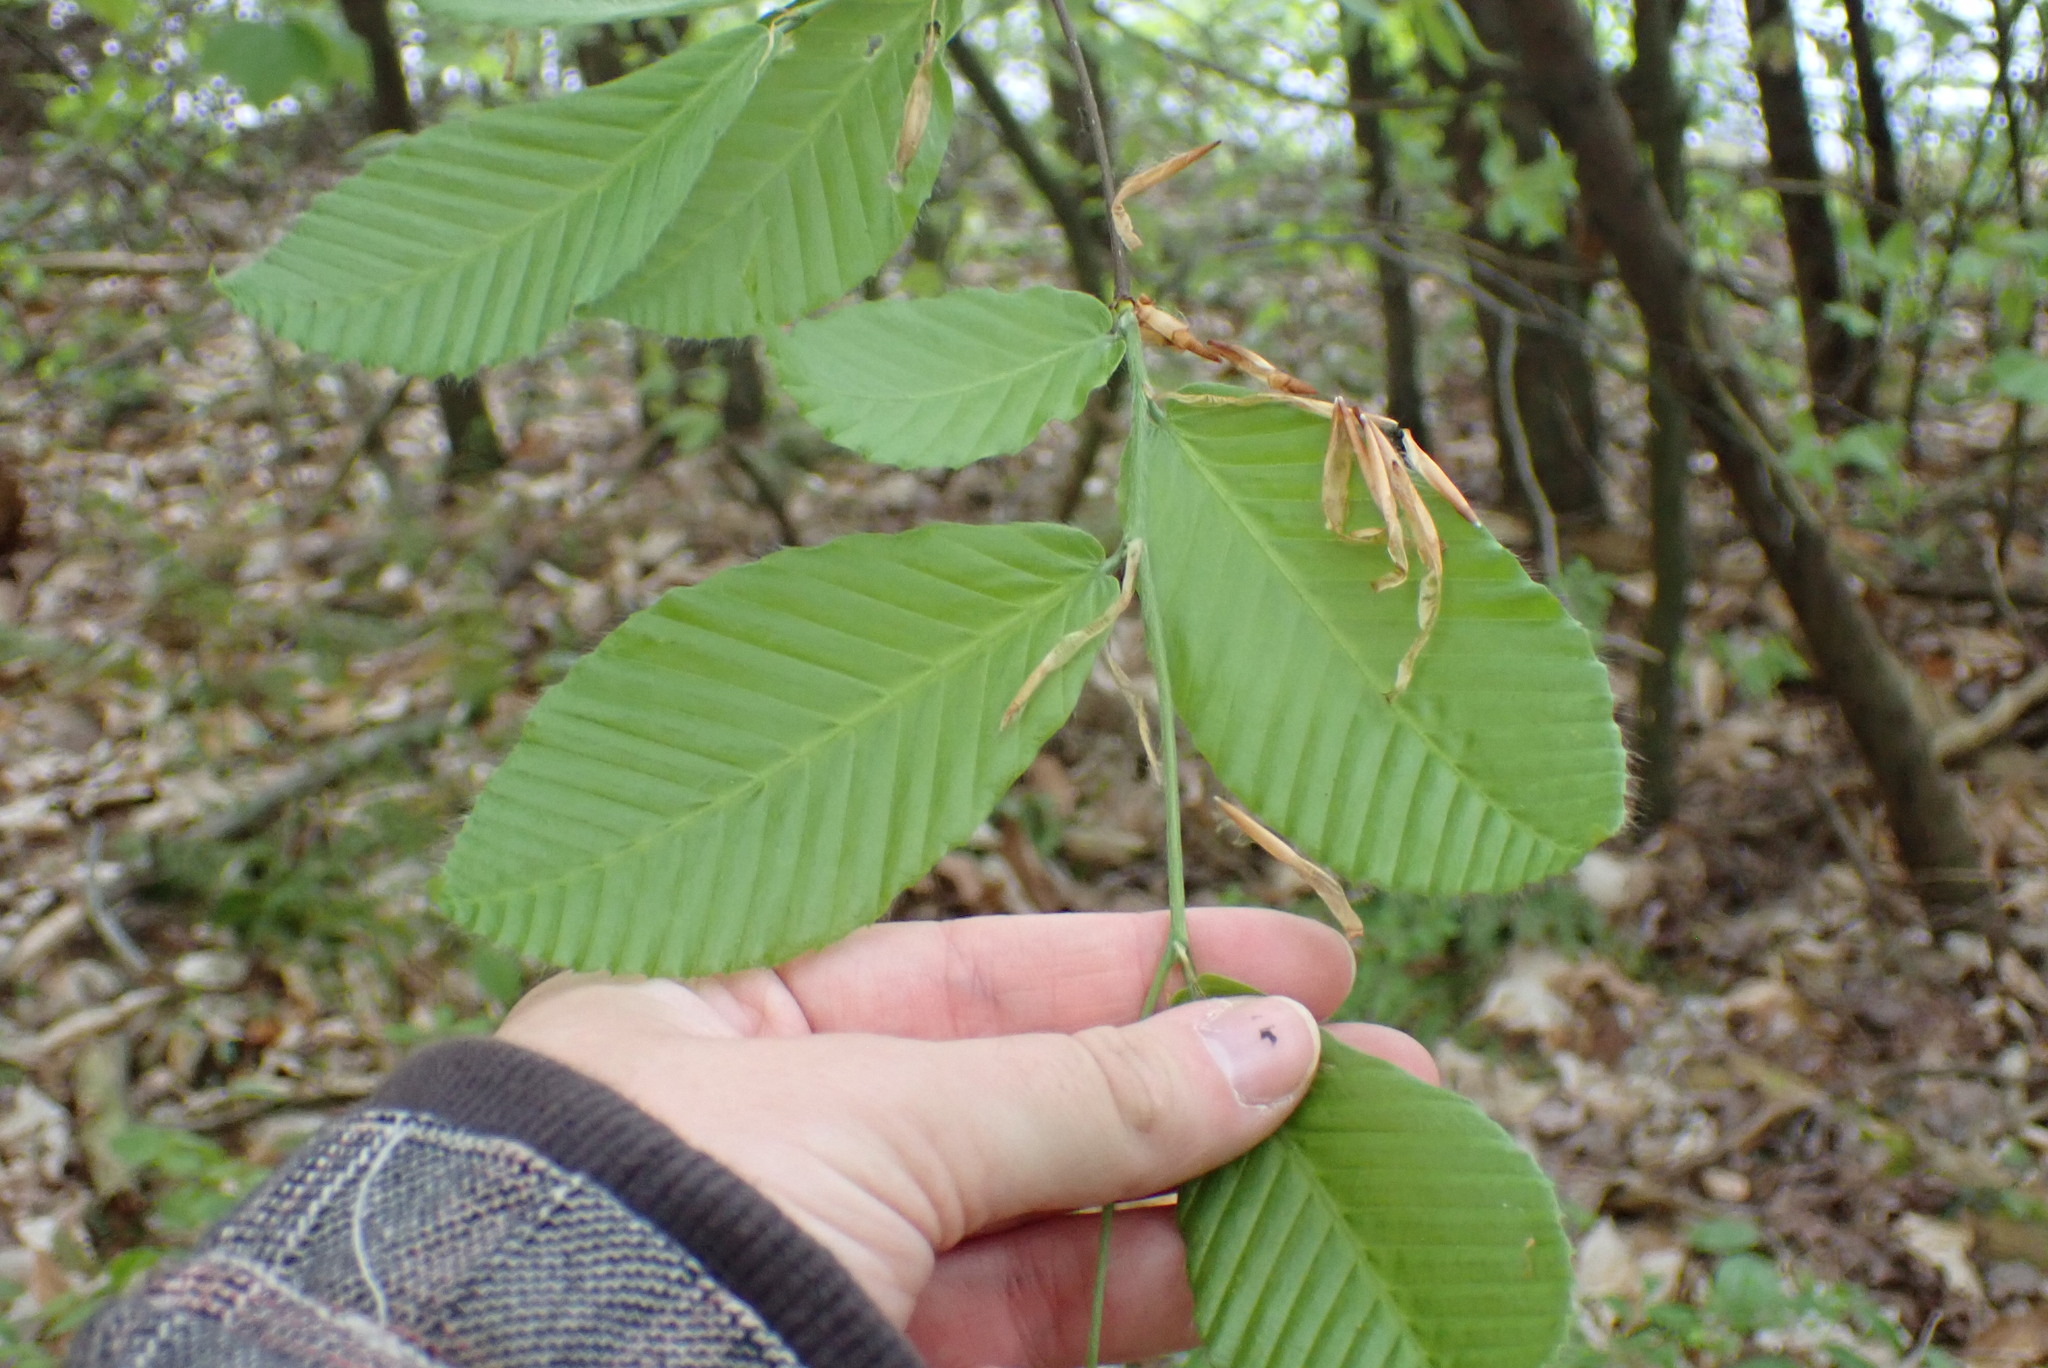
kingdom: Plantae
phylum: Tracheophyta
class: Magnoliopsida
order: Fagales
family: Fagaceae
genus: Fagus
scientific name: Fagus grandifolia
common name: American beech
